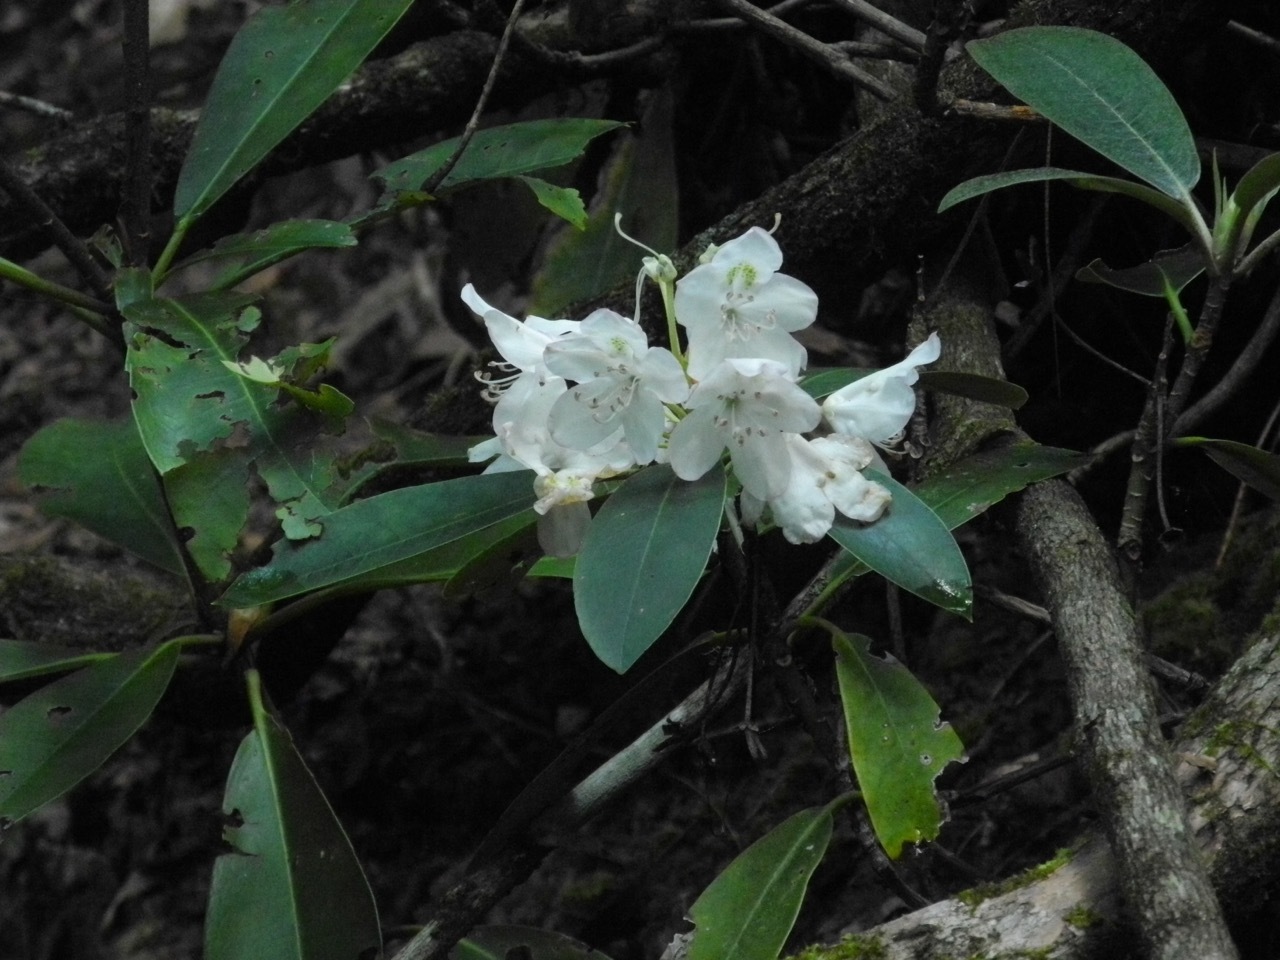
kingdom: Plantae
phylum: Tracheophyta
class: Magnoliopsida
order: Ericales
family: Ericaceae
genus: Rhododendron
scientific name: Rhododendron maximum
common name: Great rhododendron
